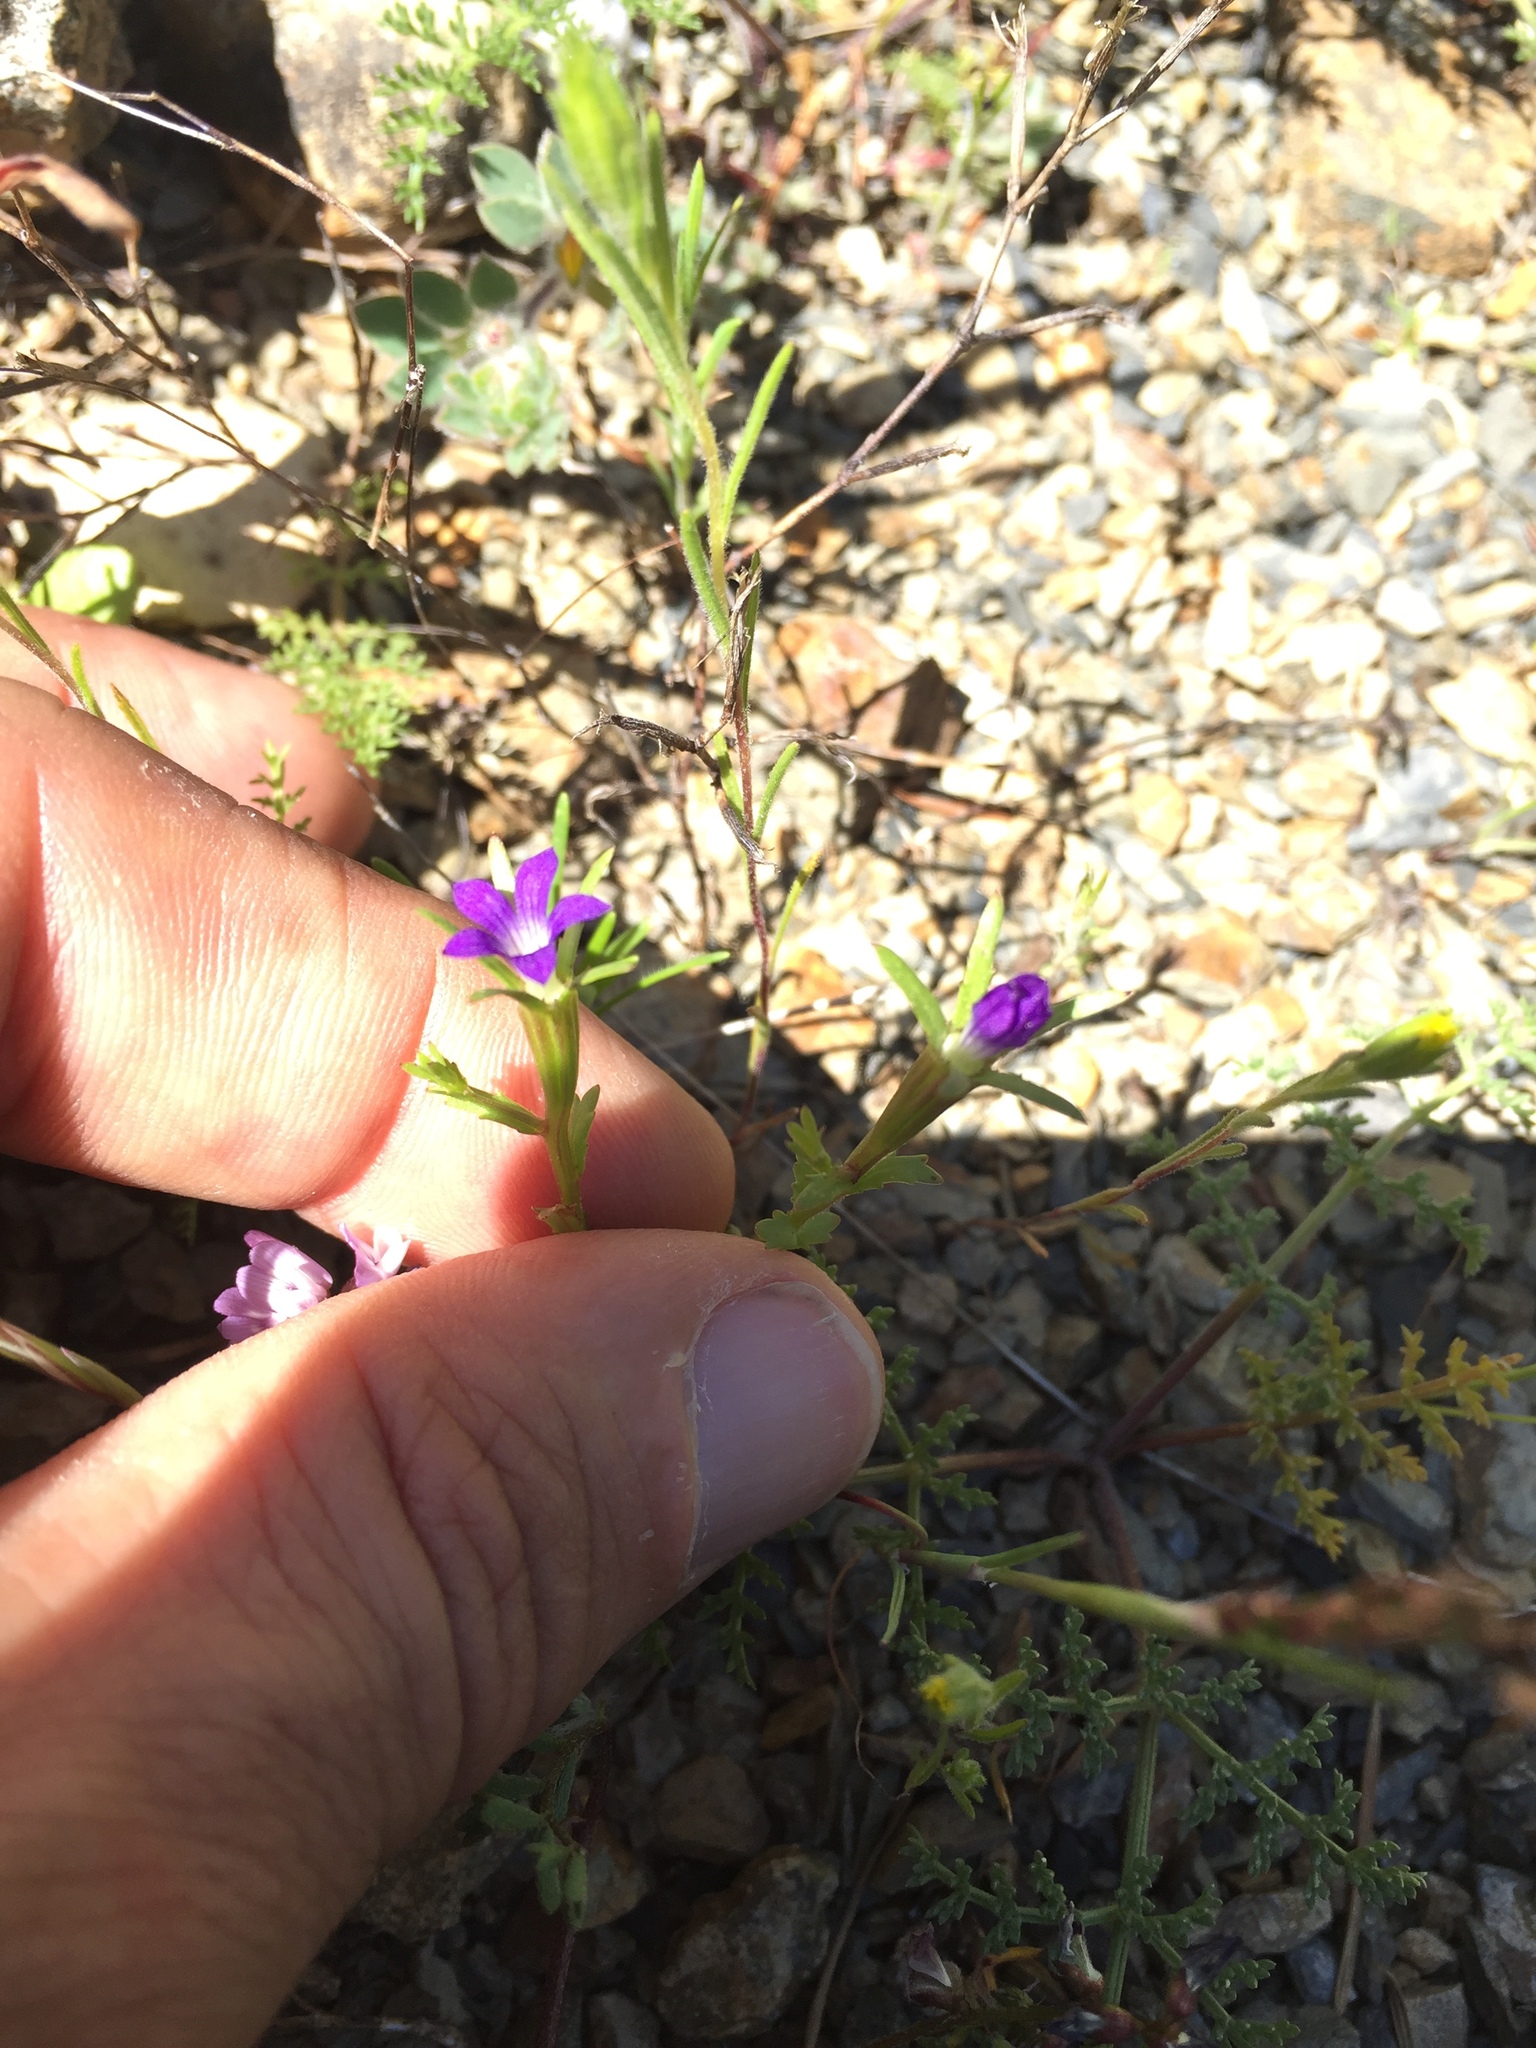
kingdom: Plantae
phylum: Tracheophyta
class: Magnoliopsida
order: Asterales
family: Campanulaceae
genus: Githopsis
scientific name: Githopsis specularioides
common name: Common bluecup
